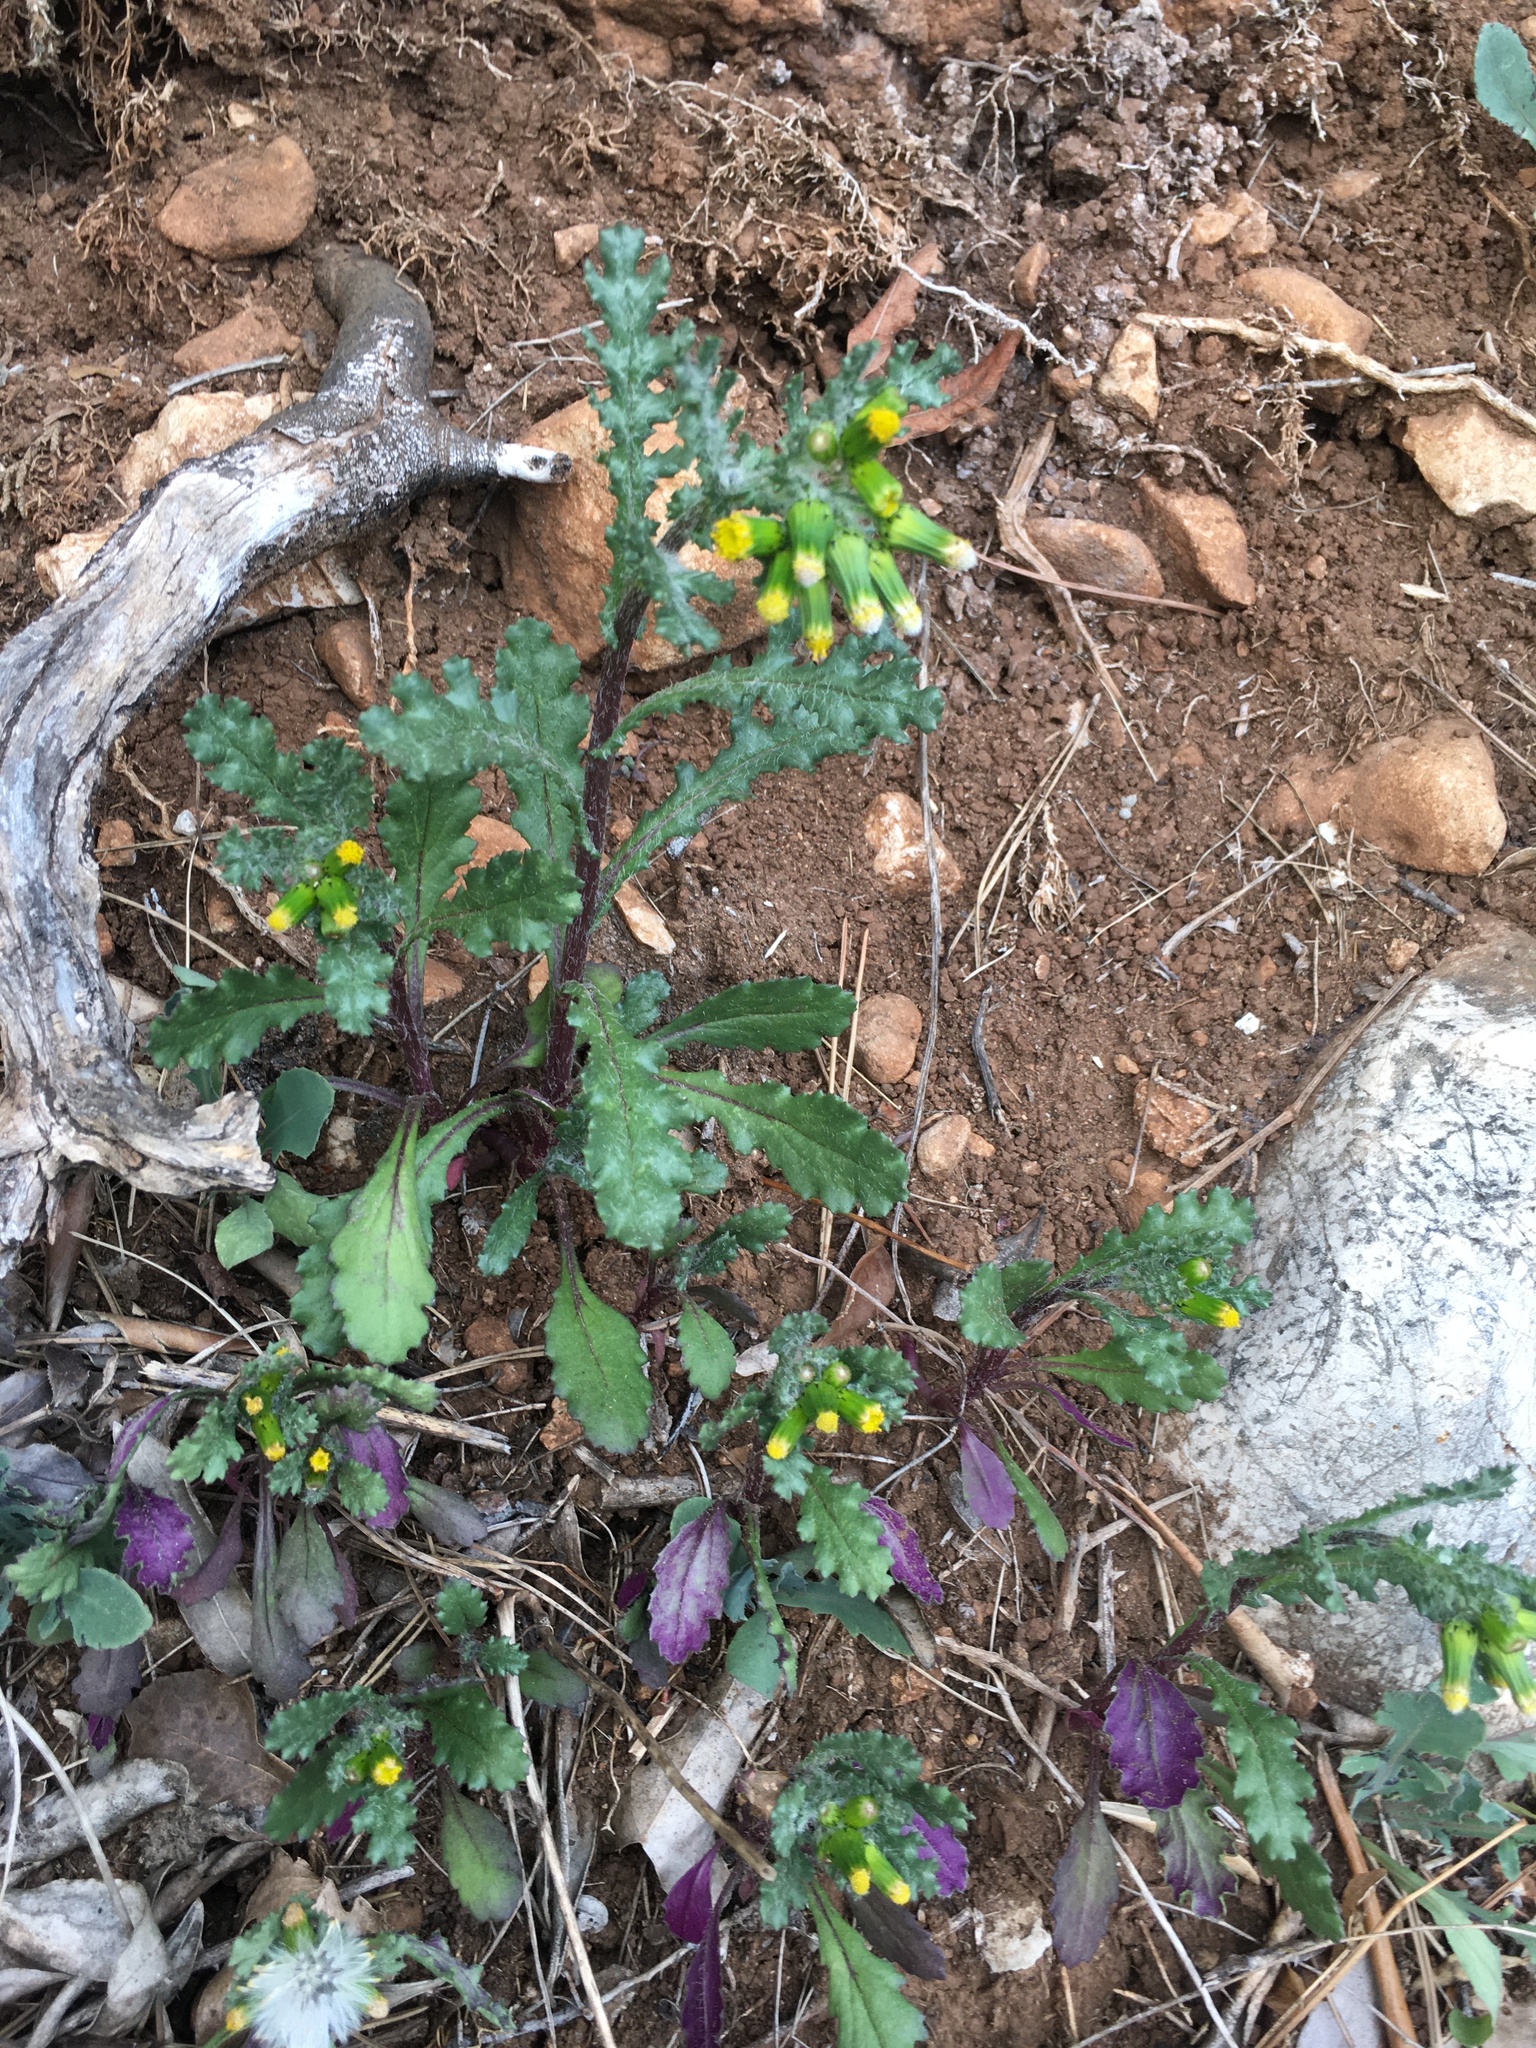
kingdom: Plantae
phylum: Tracheophyta
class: Magnoliopsida
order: Asterales
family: Asteraceae
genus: Senecio
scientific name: Senecio vulgaris
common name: Old-man-in-the-spring
